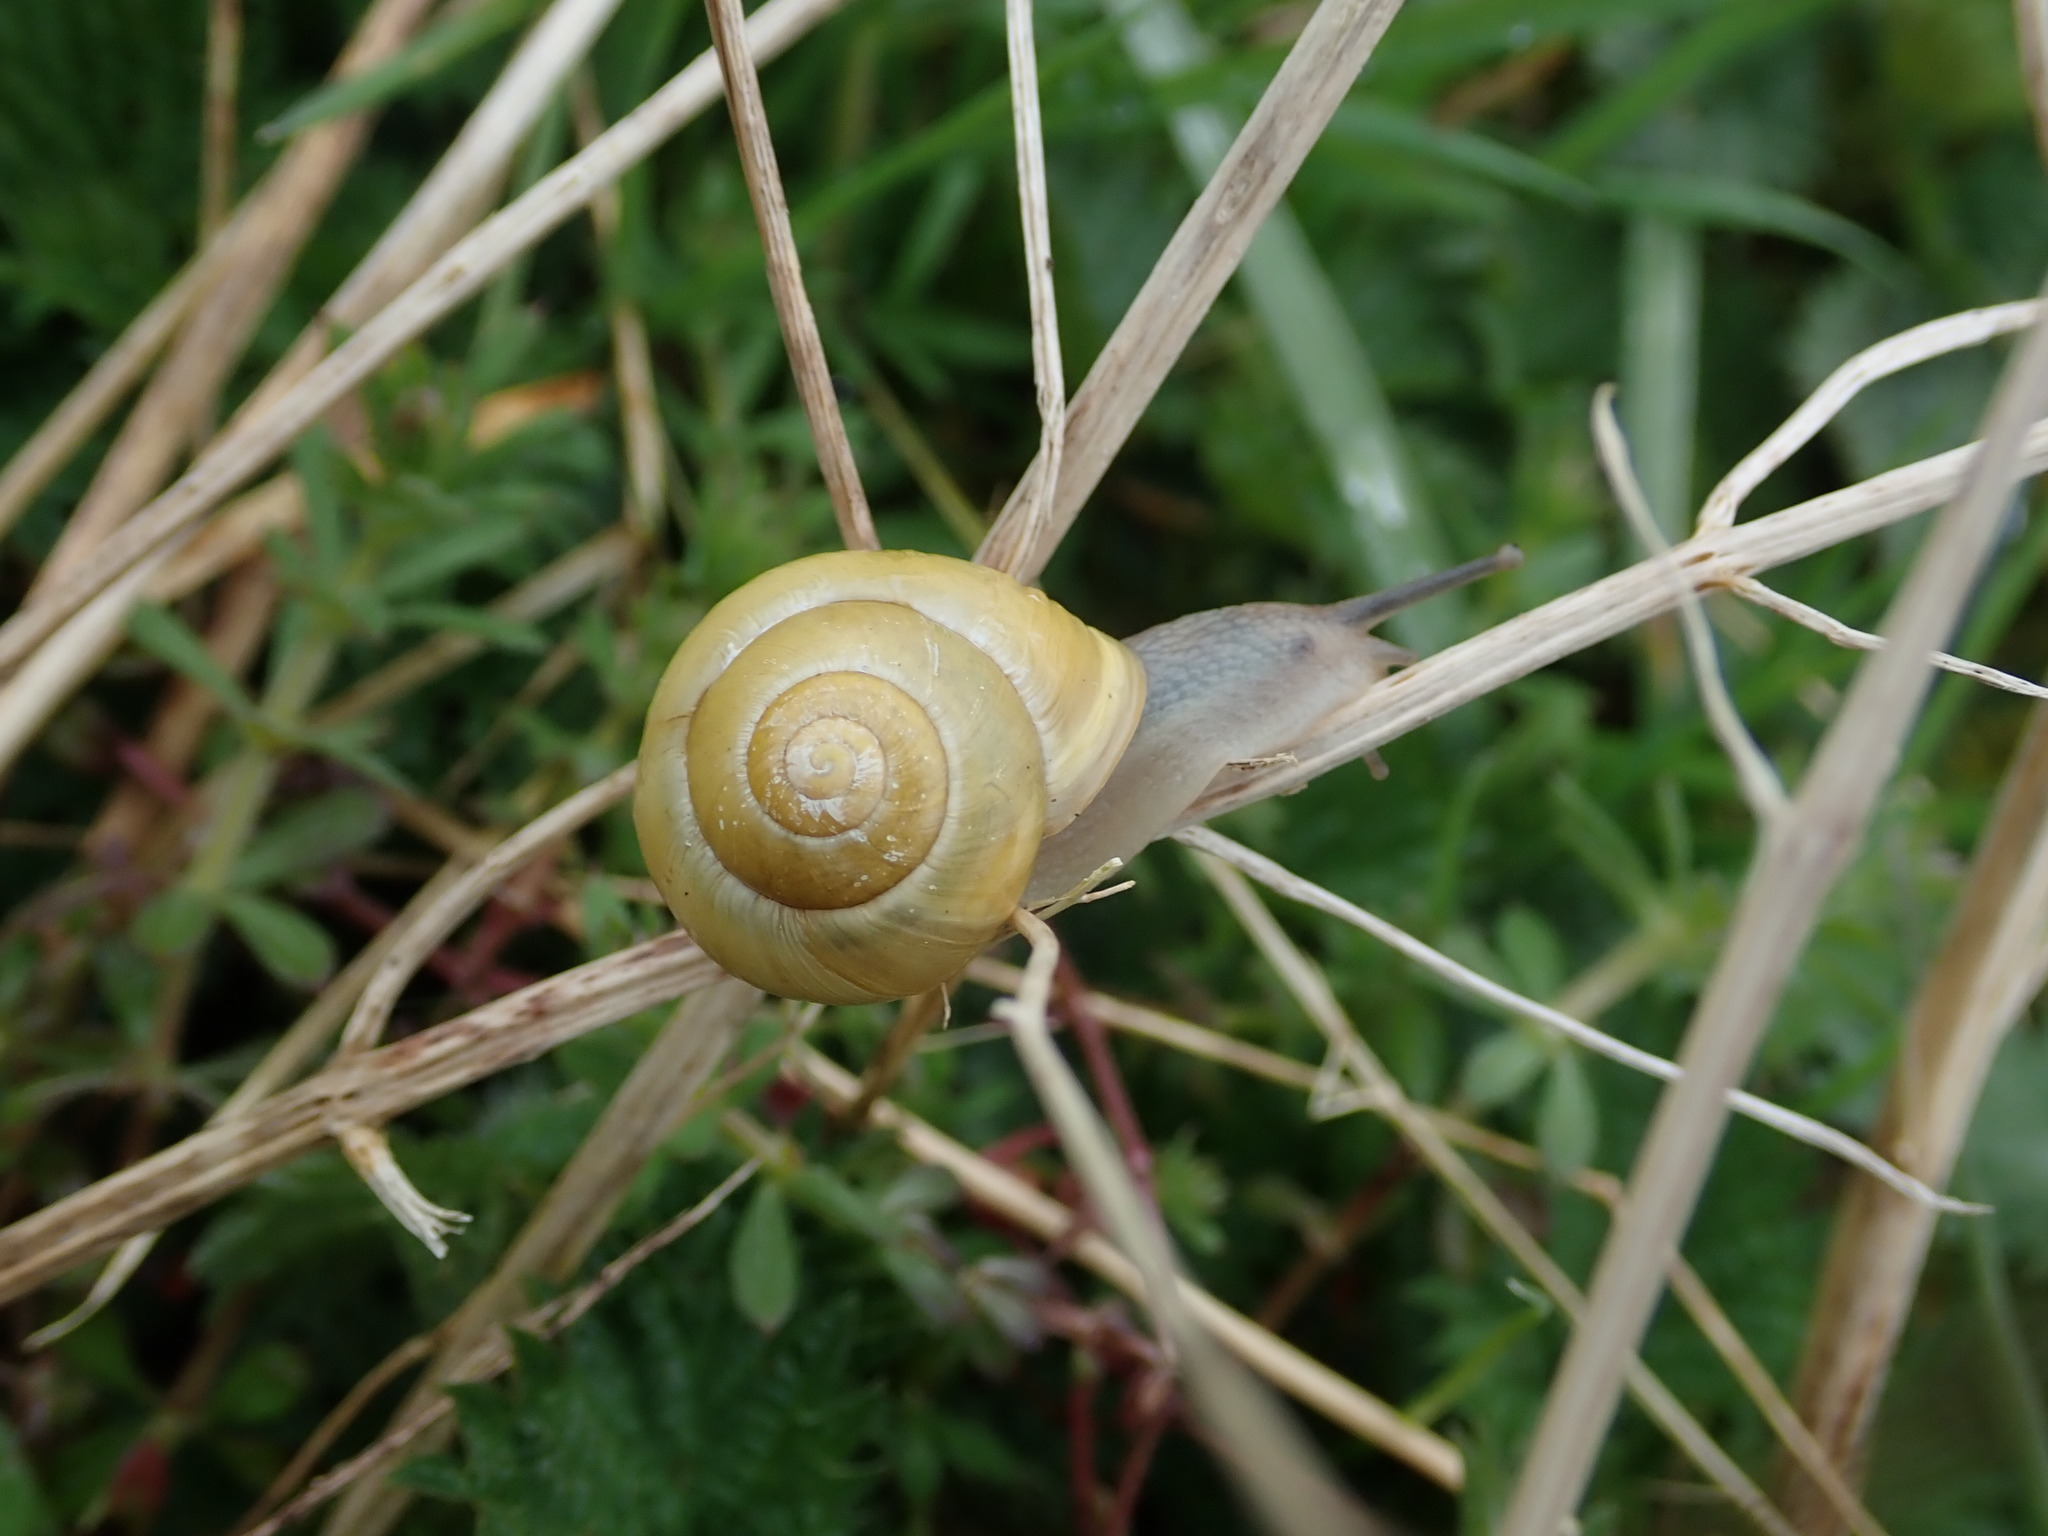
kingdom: Animalia
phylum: Mollusca
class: Gastropoda
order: Stylommatophora
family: Helicidae
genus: Cepaea
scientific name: Cepaea hortensis
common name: White-lip gardensnail
